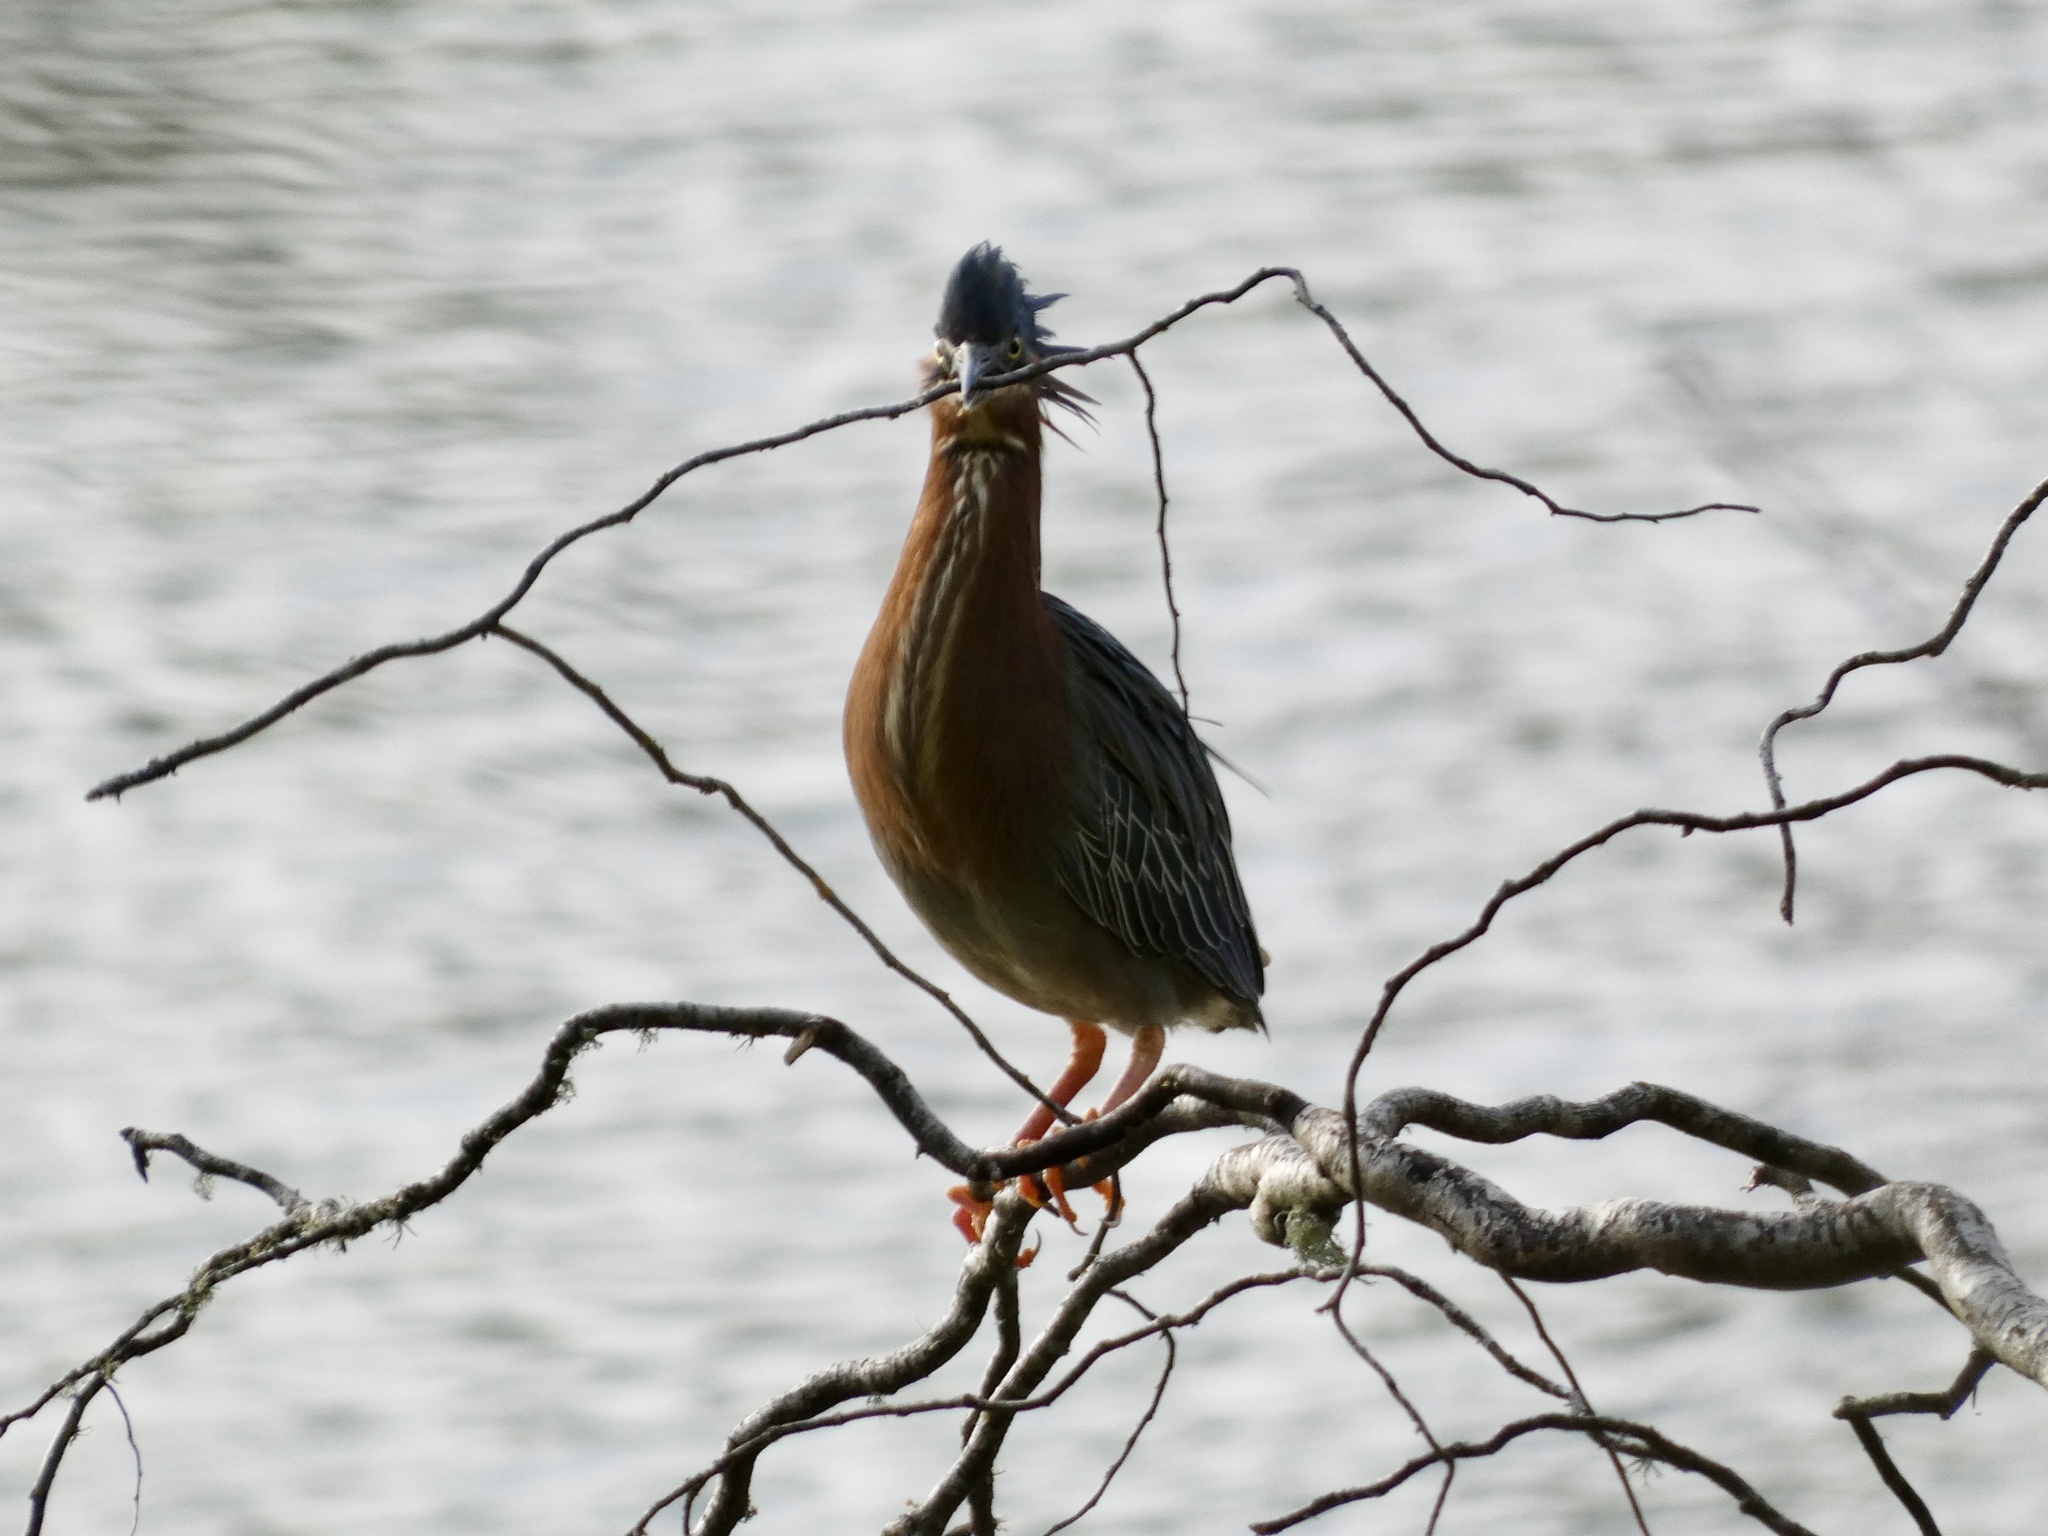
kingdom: Animalia
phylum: Chordata
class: Aves
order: Pelecaniformes
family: Ardeidae
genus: Butorides
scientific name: Butorides virescens
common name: Green heron
